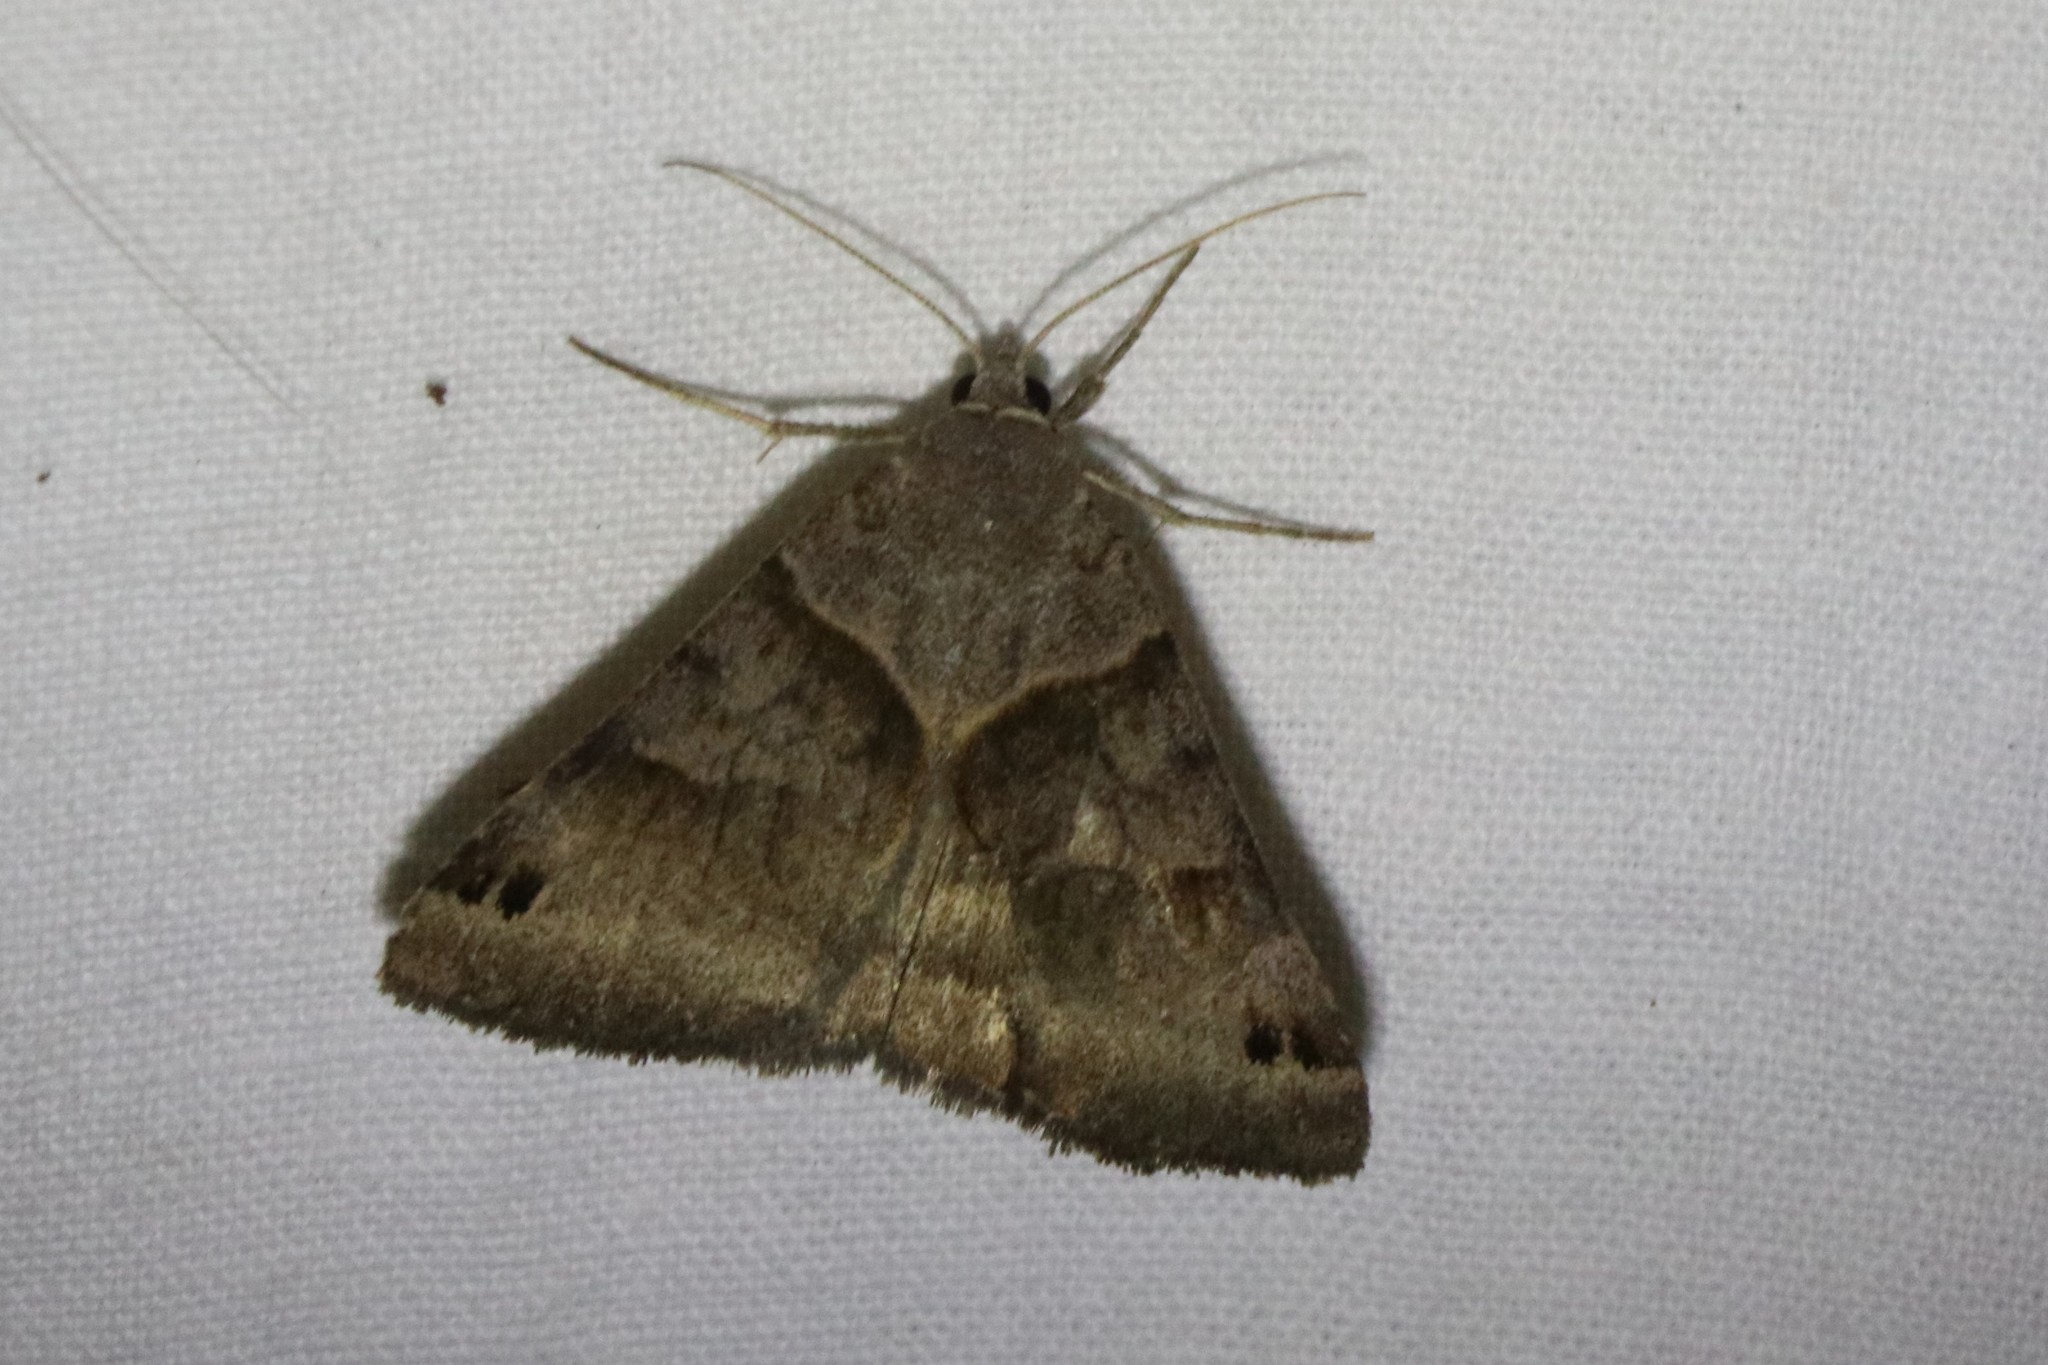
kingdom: Animalia
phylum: Arthropoda
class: Insecta
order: Lepidoptera
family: Erebidae
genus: Caenurgina
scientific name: Caenurgina crassiuscula
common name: Double-barred
